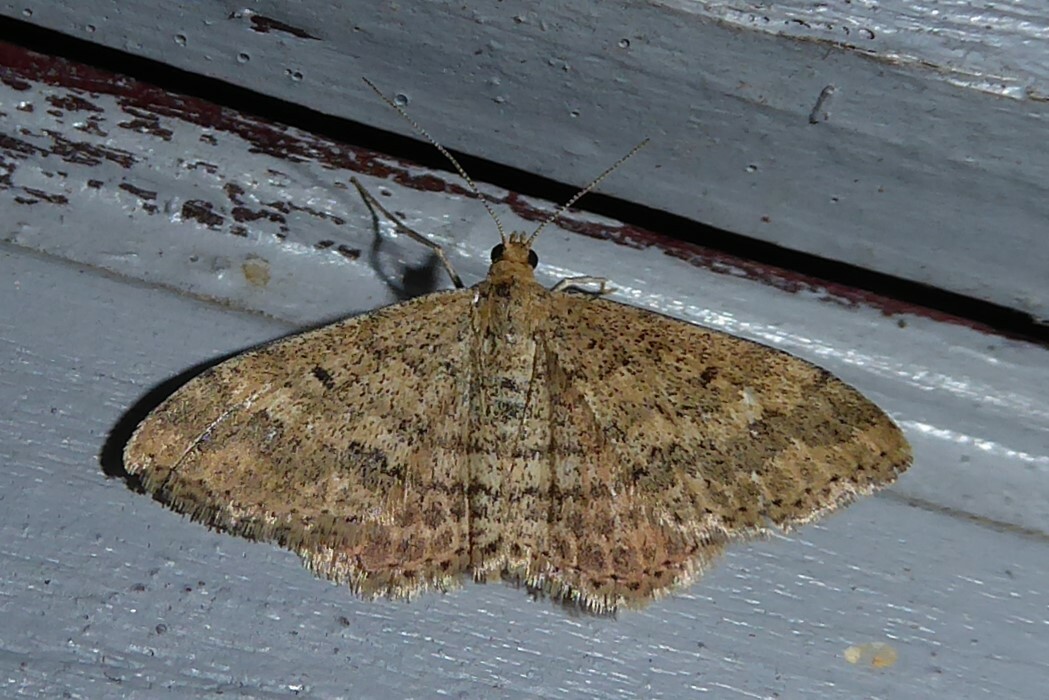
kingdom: Animalia
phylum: Arthropoda
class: Insecta
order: Lepidoptera
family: Geometridae
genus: Scopula
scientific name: Scopula rubraria
